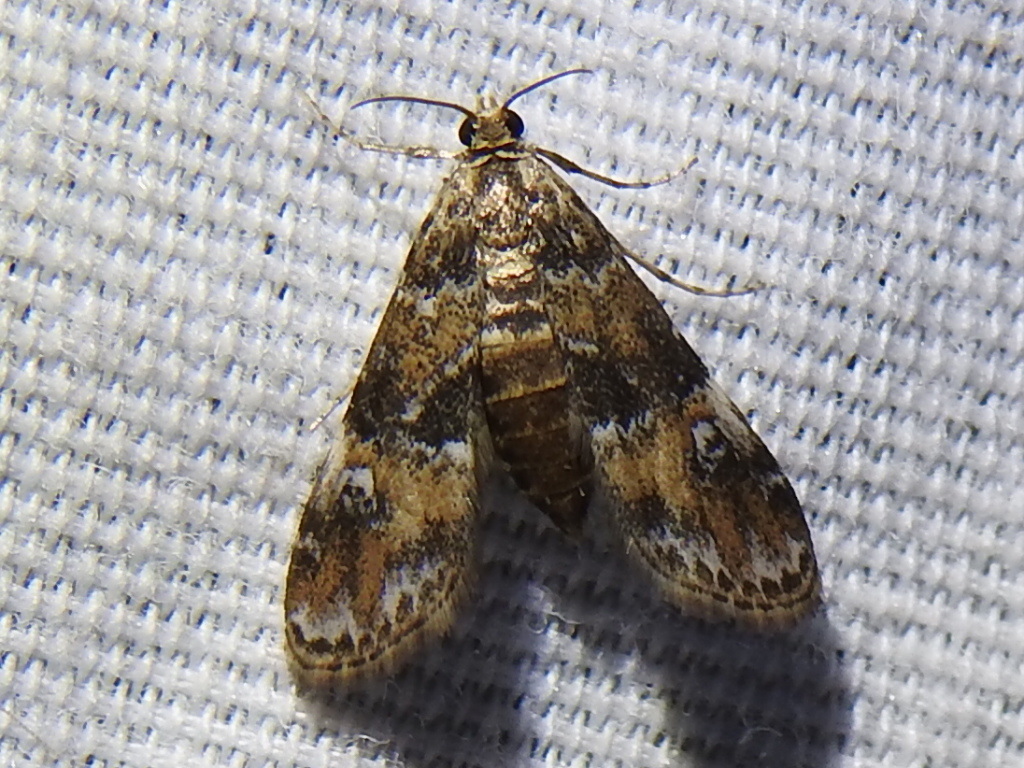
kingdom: Animalia
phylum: Arthropoda
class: Insecta
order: Lepidoptera
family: Crambidae
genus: Elophila
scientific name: Elophila obliteralis
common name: Waterlily leafcutter moth
